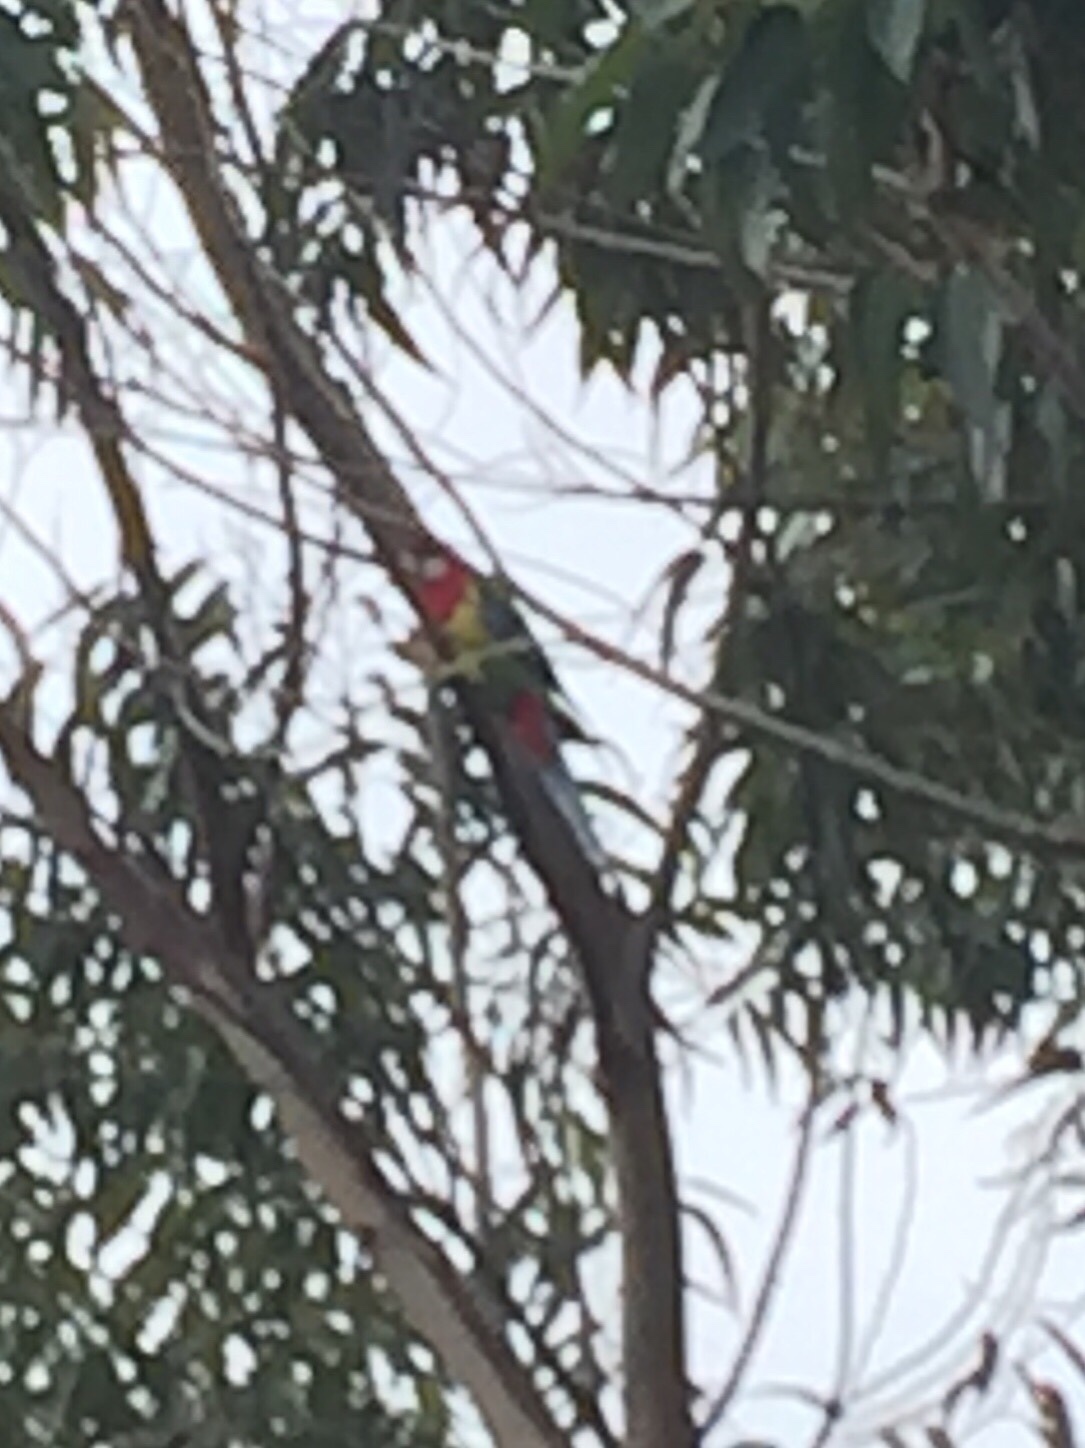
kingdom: Animalia
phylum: Chordata
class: Aves
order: Psittaciformes
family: Psittacidae
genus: Platycercus
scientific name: Platycercus eximius
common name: Eastern rosella
